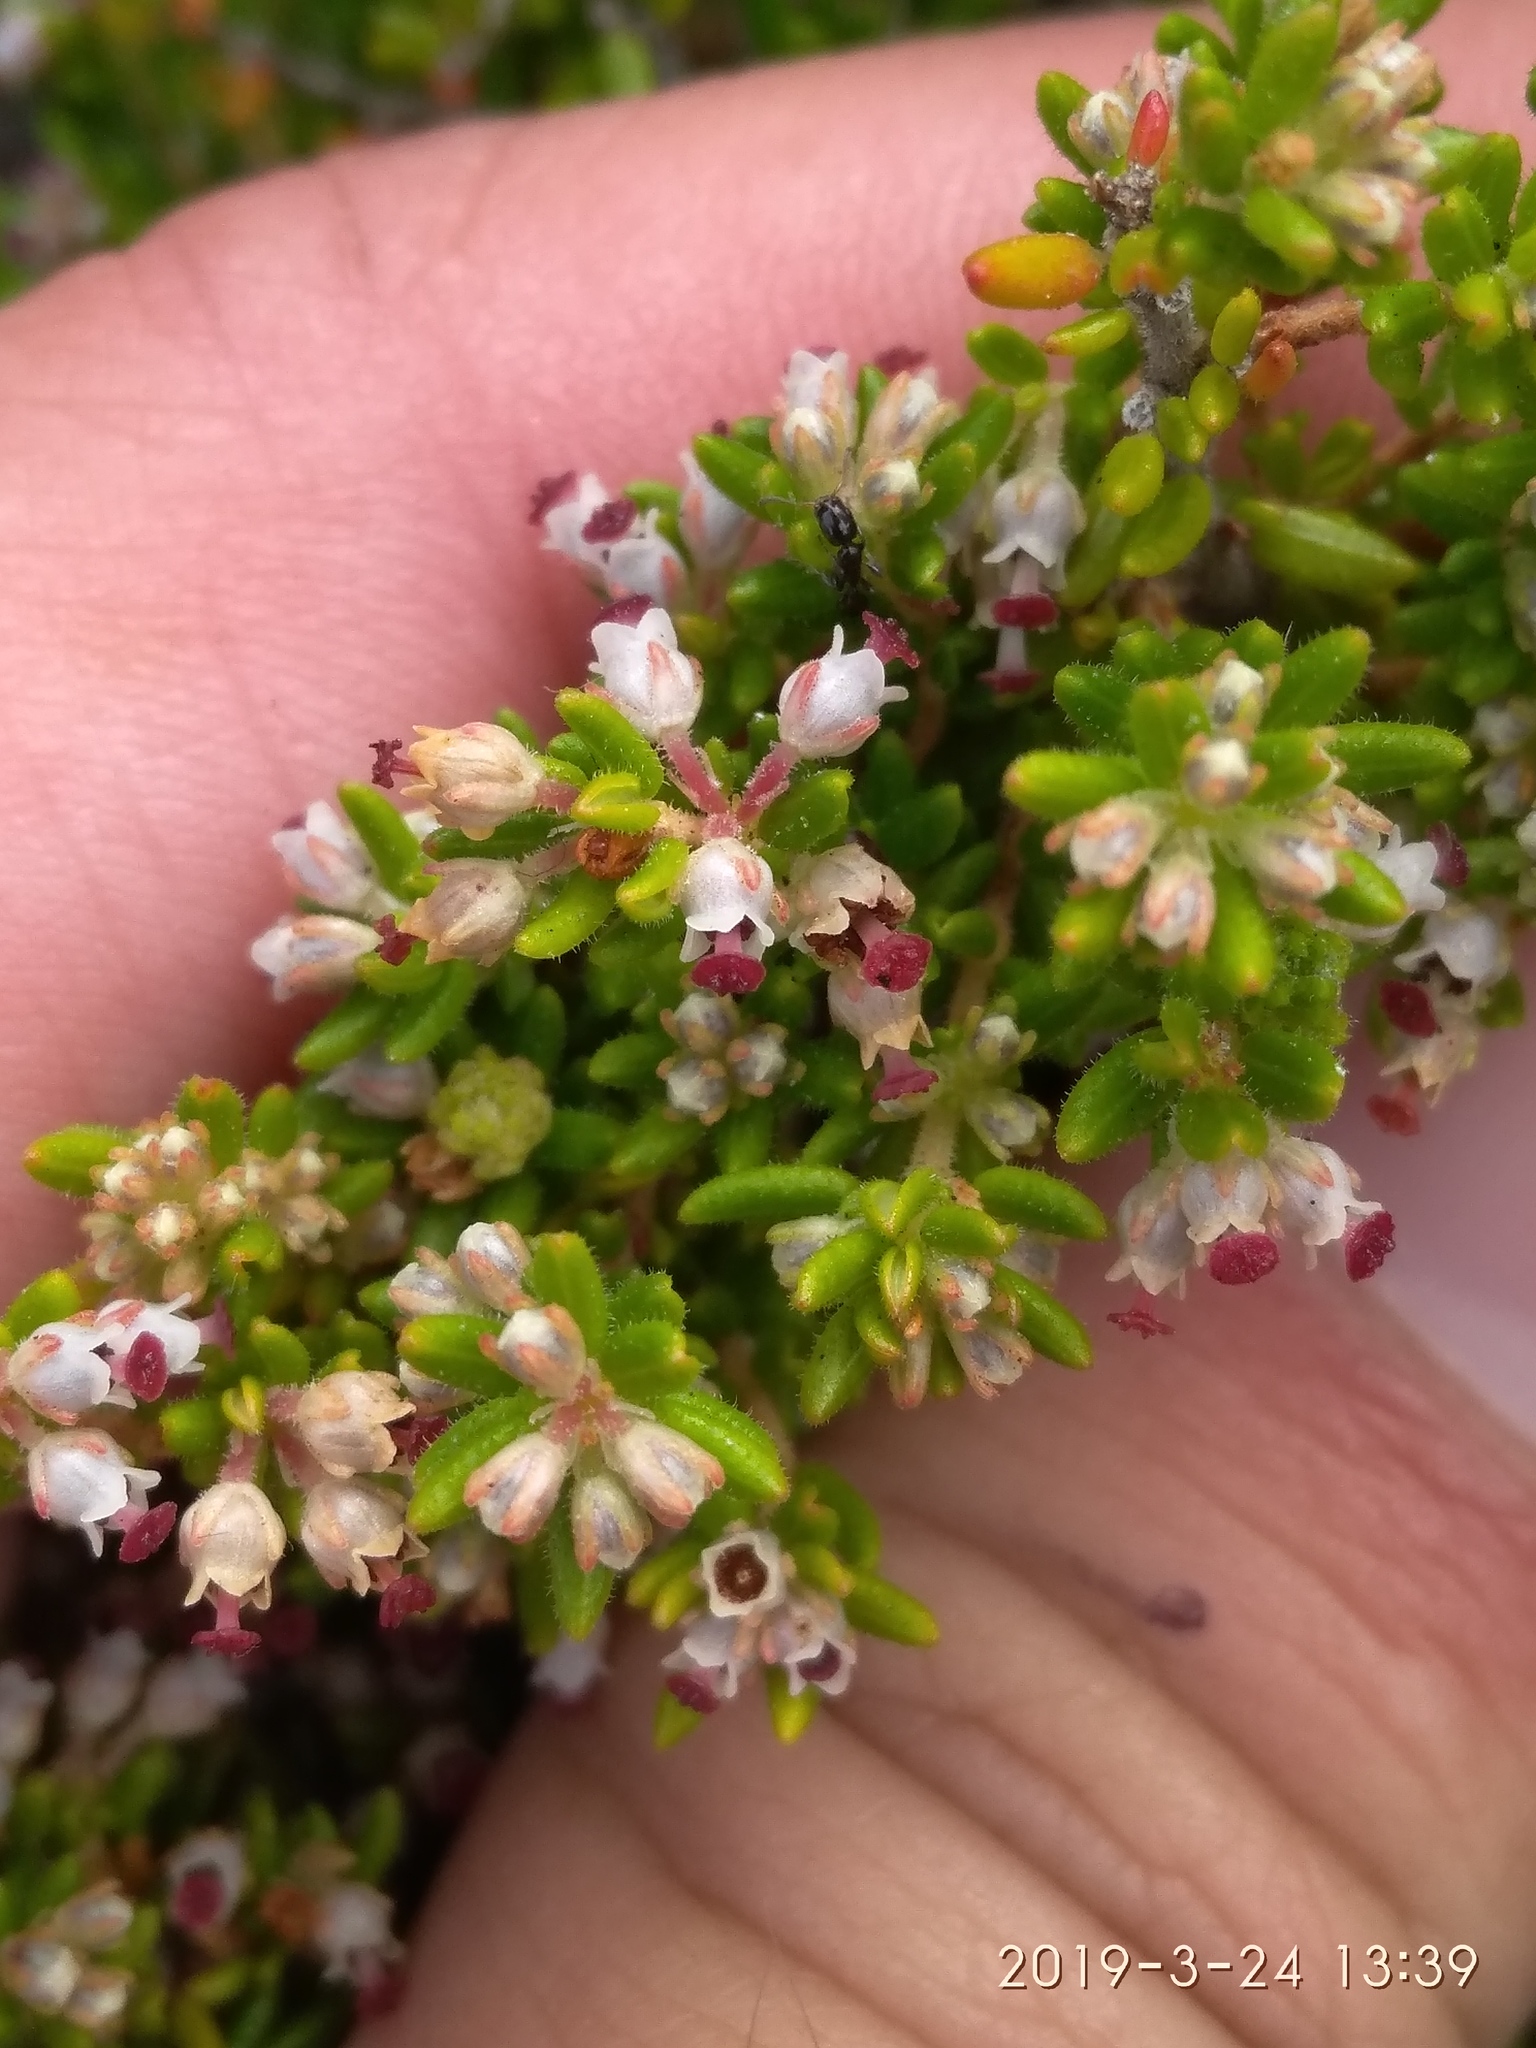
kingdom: Plantae
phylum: Tracheophyta
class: Magnoliopsida
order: Ericales
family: Ericaceae
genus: Erica
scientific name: Erica hispidula
